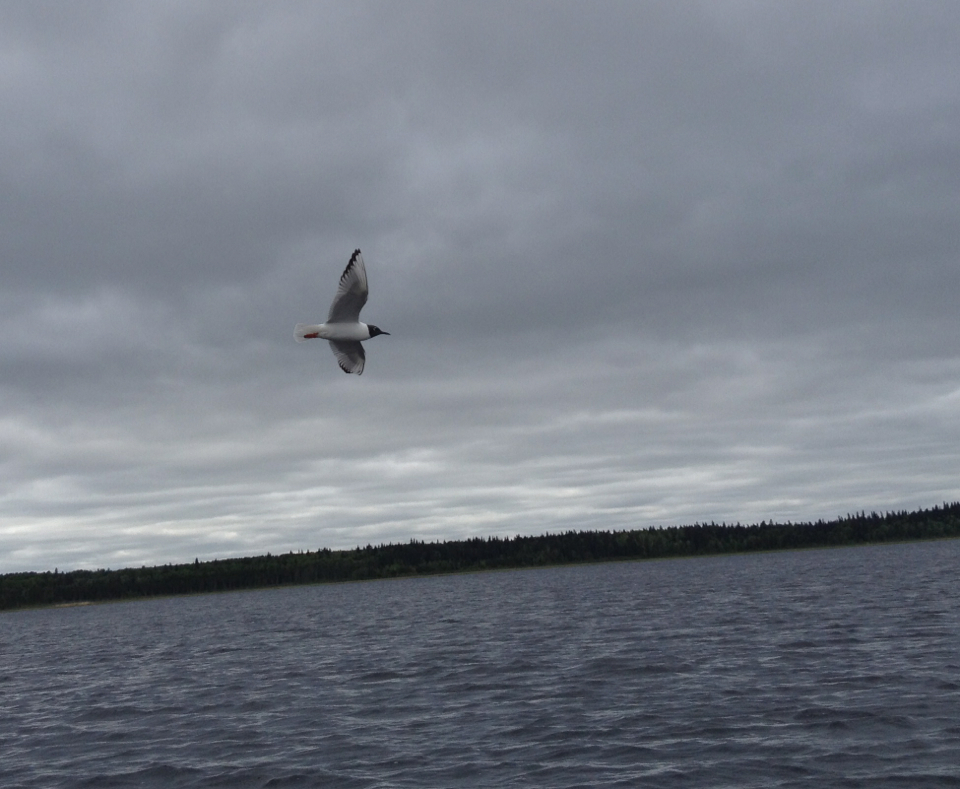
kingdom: Animalia
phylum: Chordata
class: Aves
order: Charadriiformes
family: Laridae
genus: Chroicocephalus
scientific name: Chroicocephalus philadelphia
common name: Bonaparte's gull
